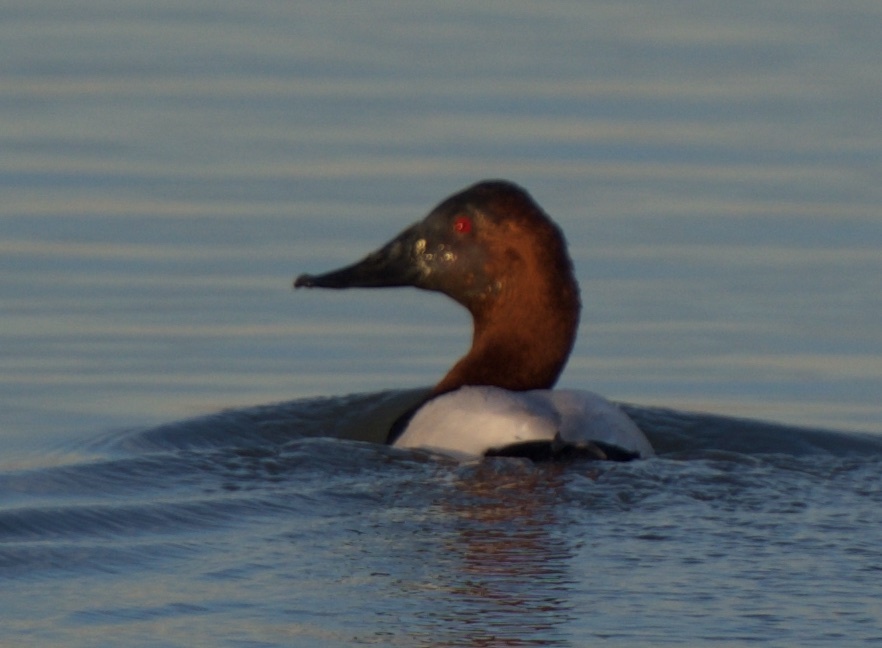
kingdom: Animalia
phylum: Chordata
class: Aves
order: Anseriformes
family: Anatidae
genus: Aythya
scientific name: Aythya valisineria
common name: Canvasback
